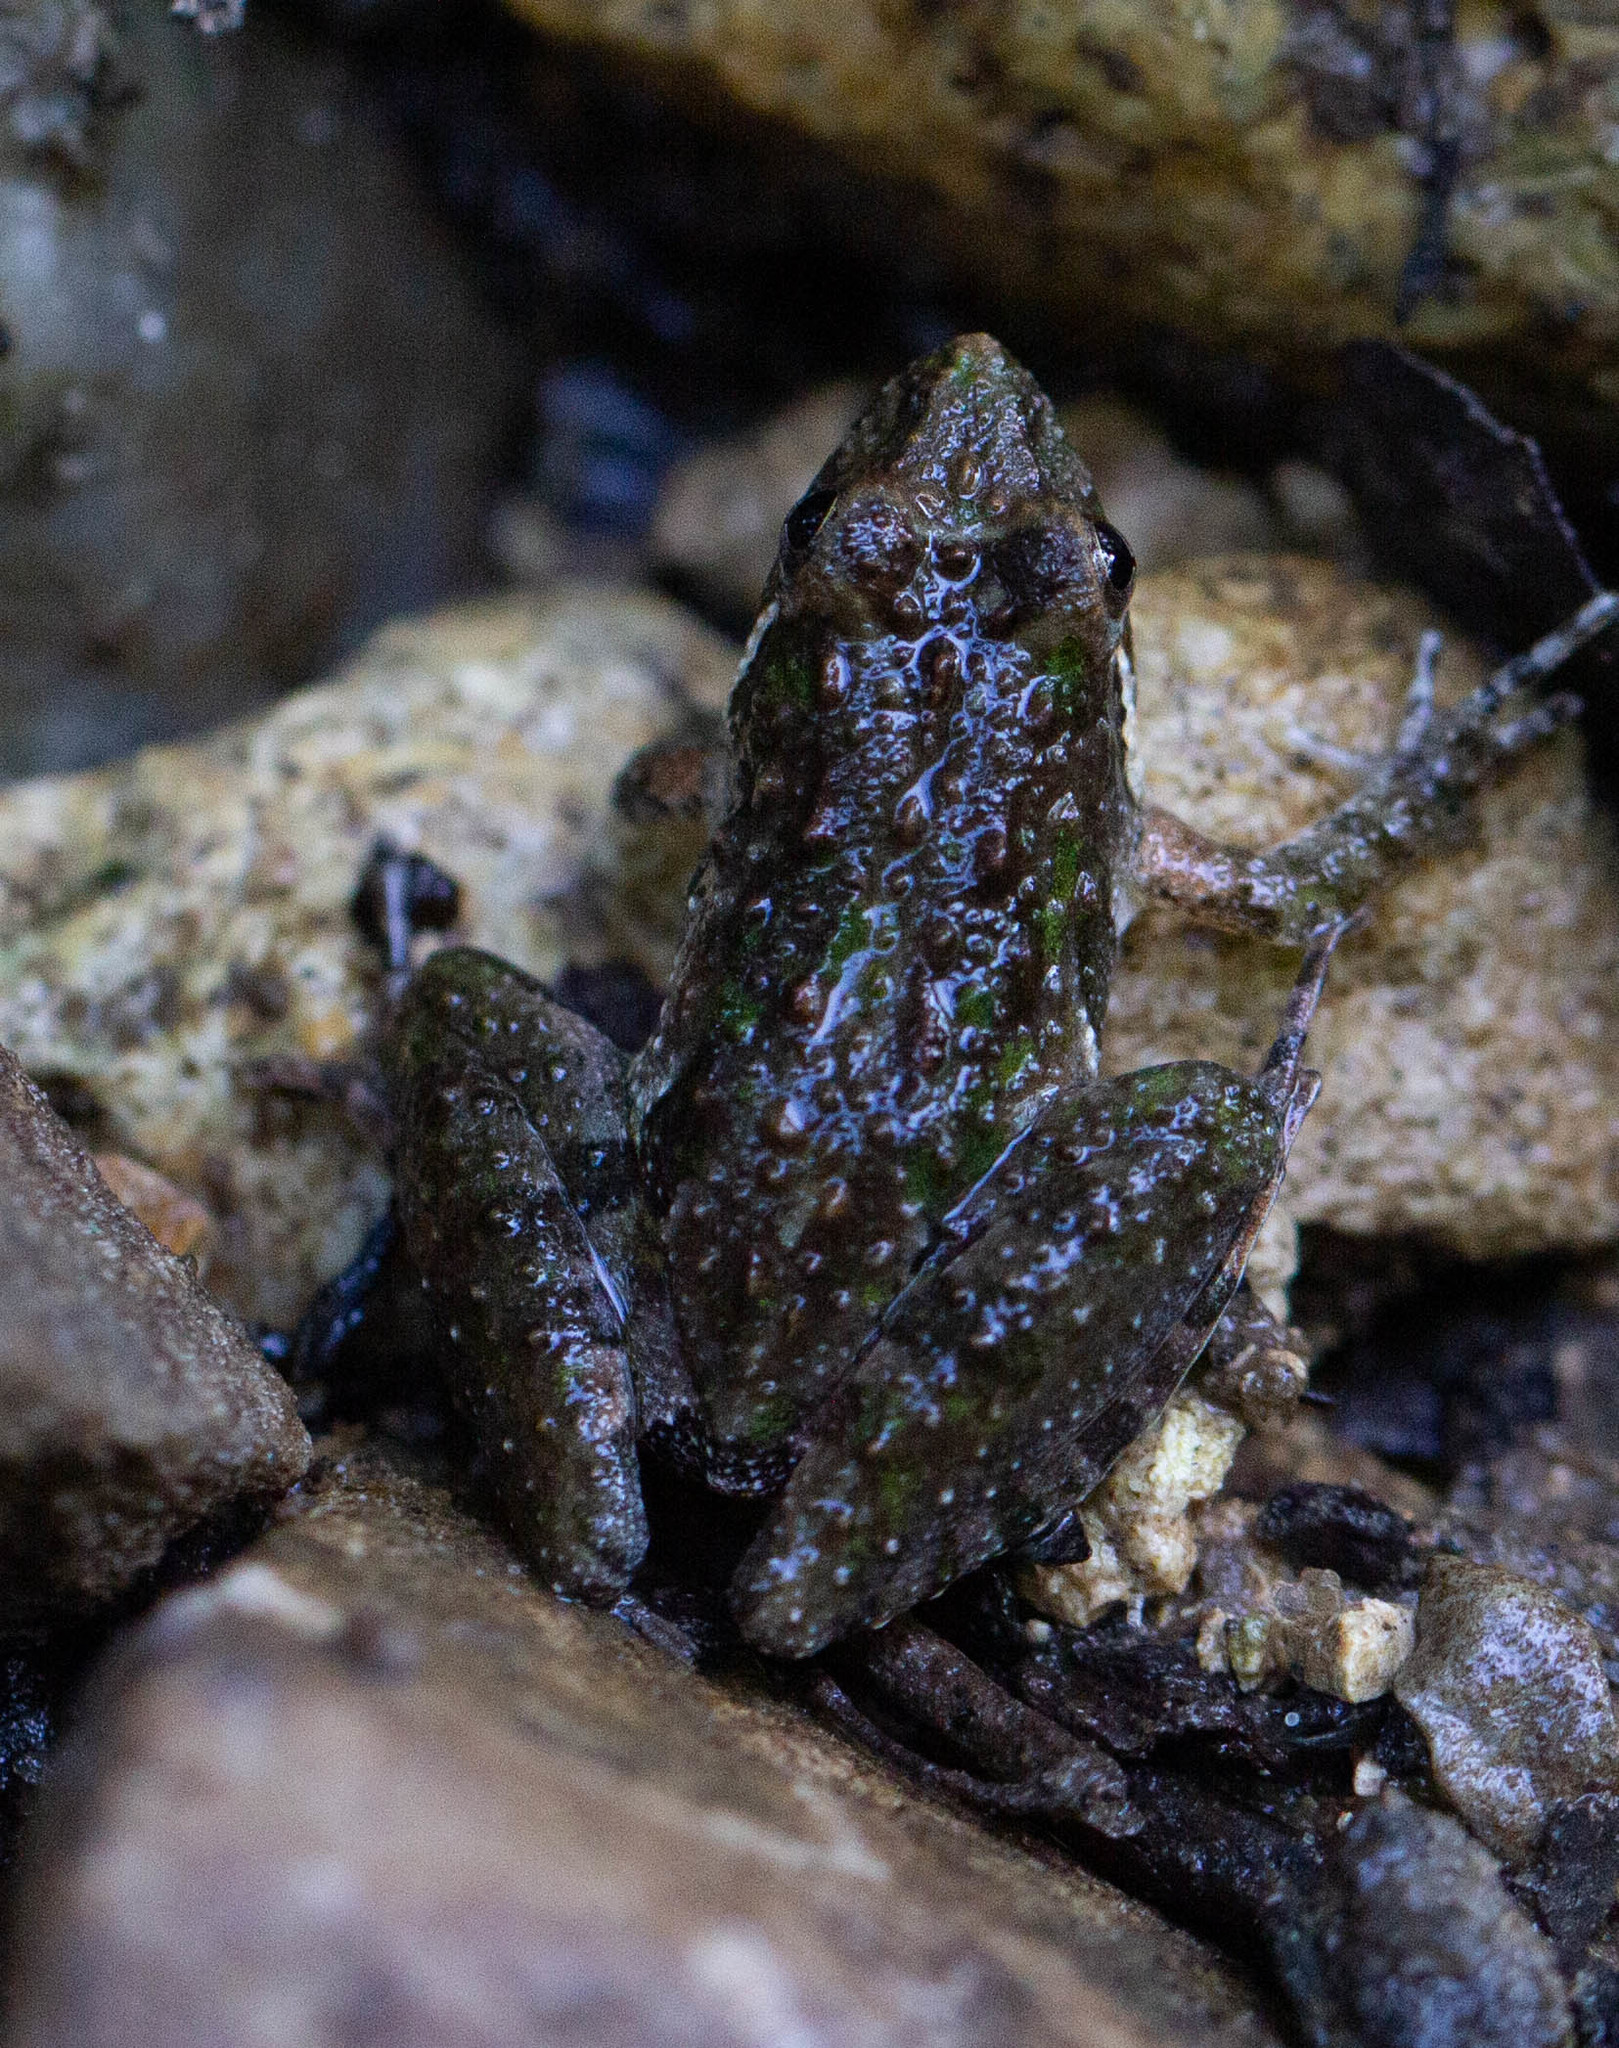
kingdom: Animalia
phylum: Chordata
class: Amphibia
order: Anura
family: Hylidae
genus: Acris
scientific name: Acris gryllus
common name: Southern cricket frog
